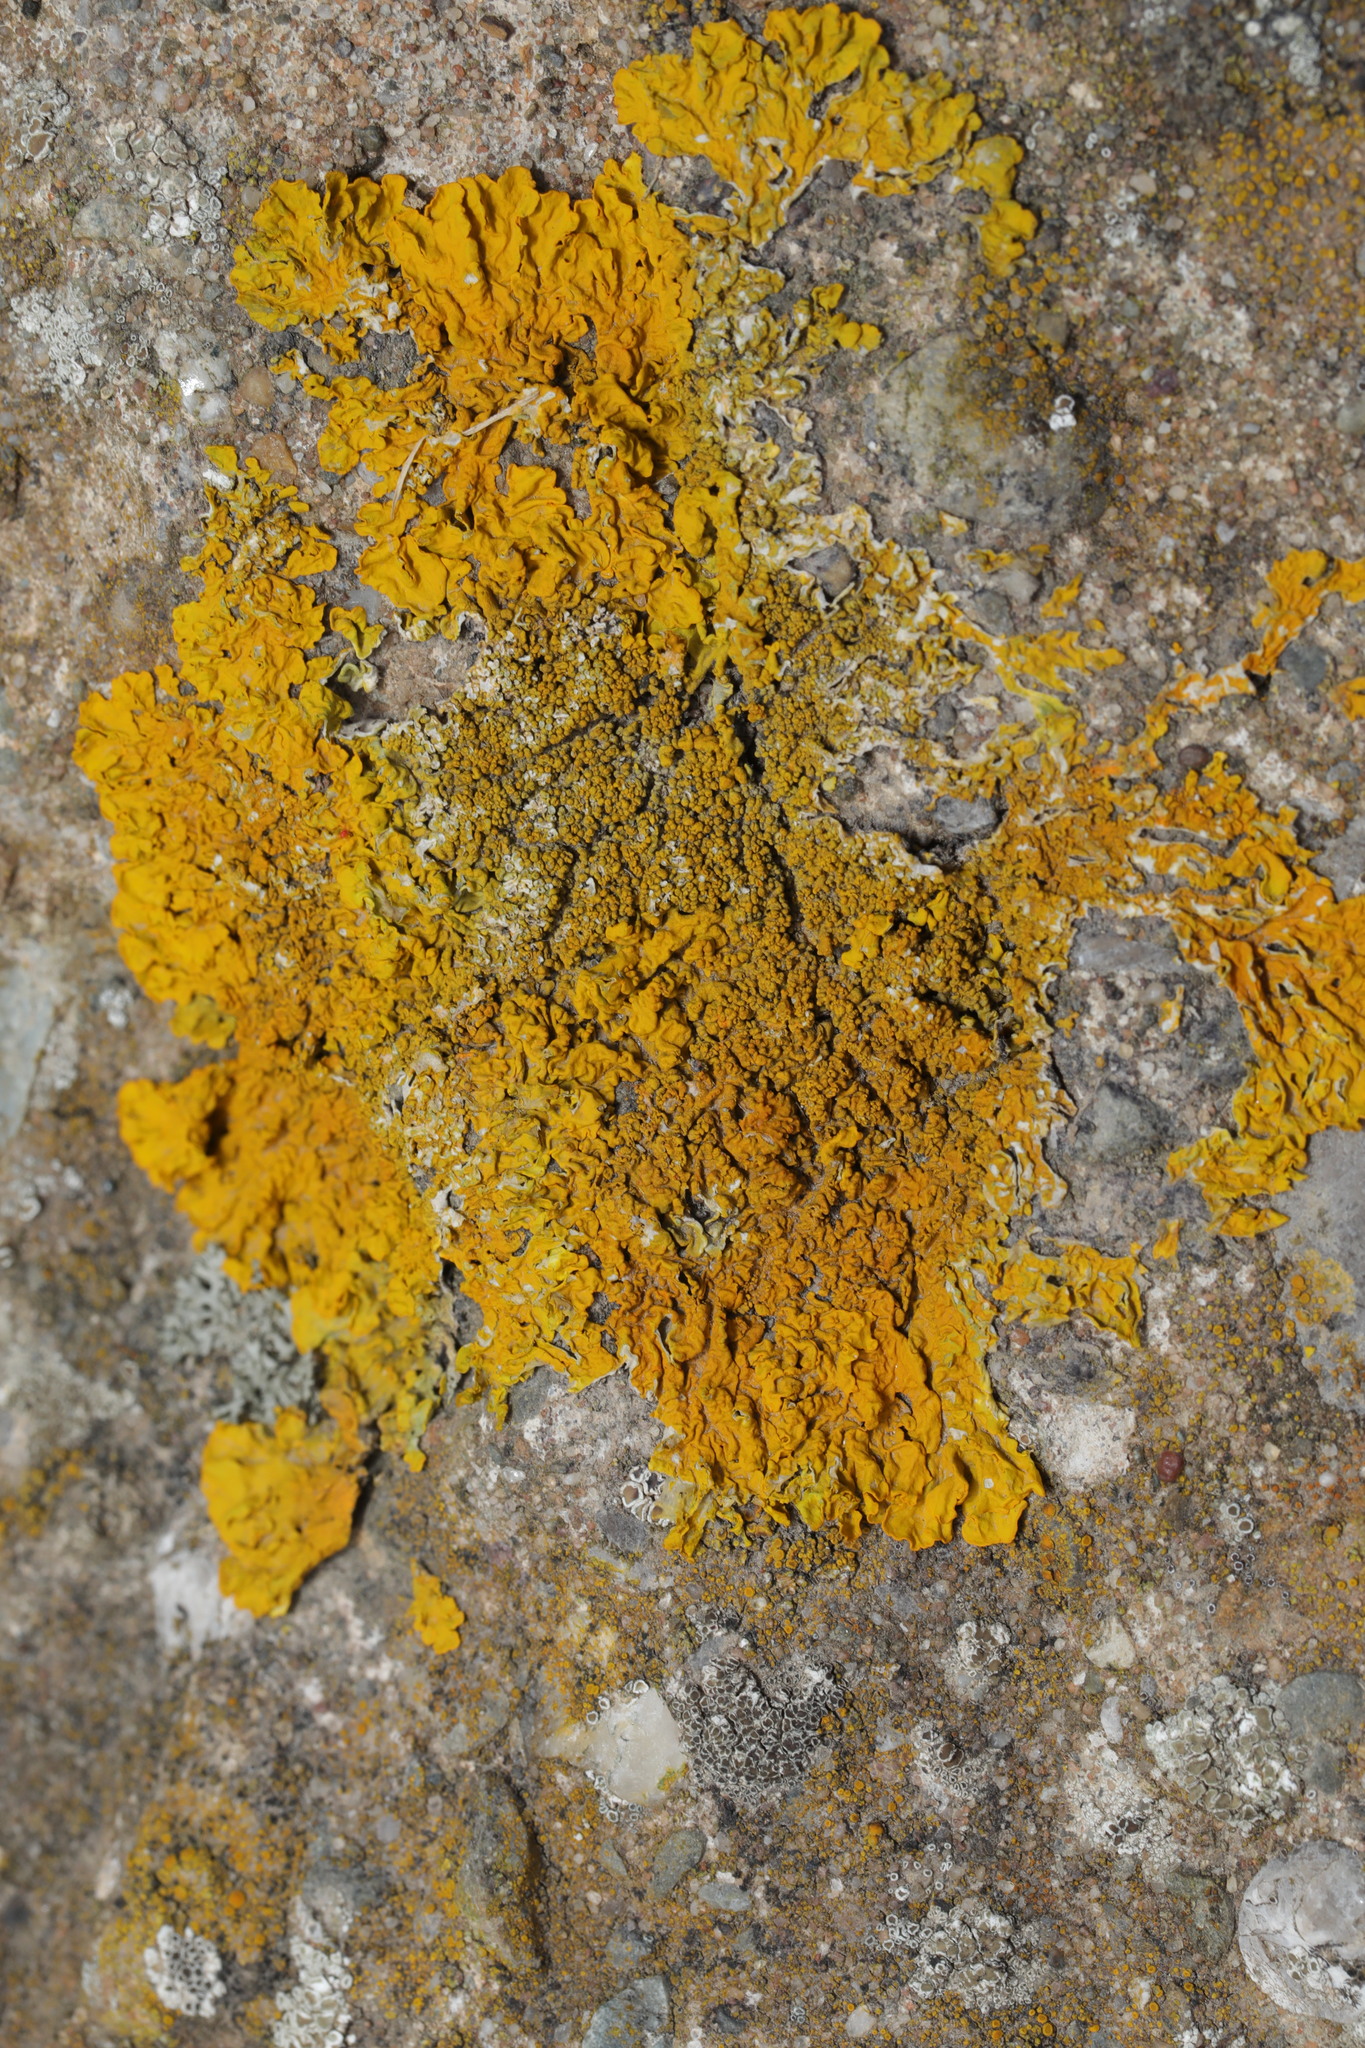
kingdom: Fungi
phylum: Ascomycota
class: Lecanoromycetes
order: Teloschistales
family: Teloschistaceae
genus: Xanthoria
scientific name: Xanthoria calcicola
